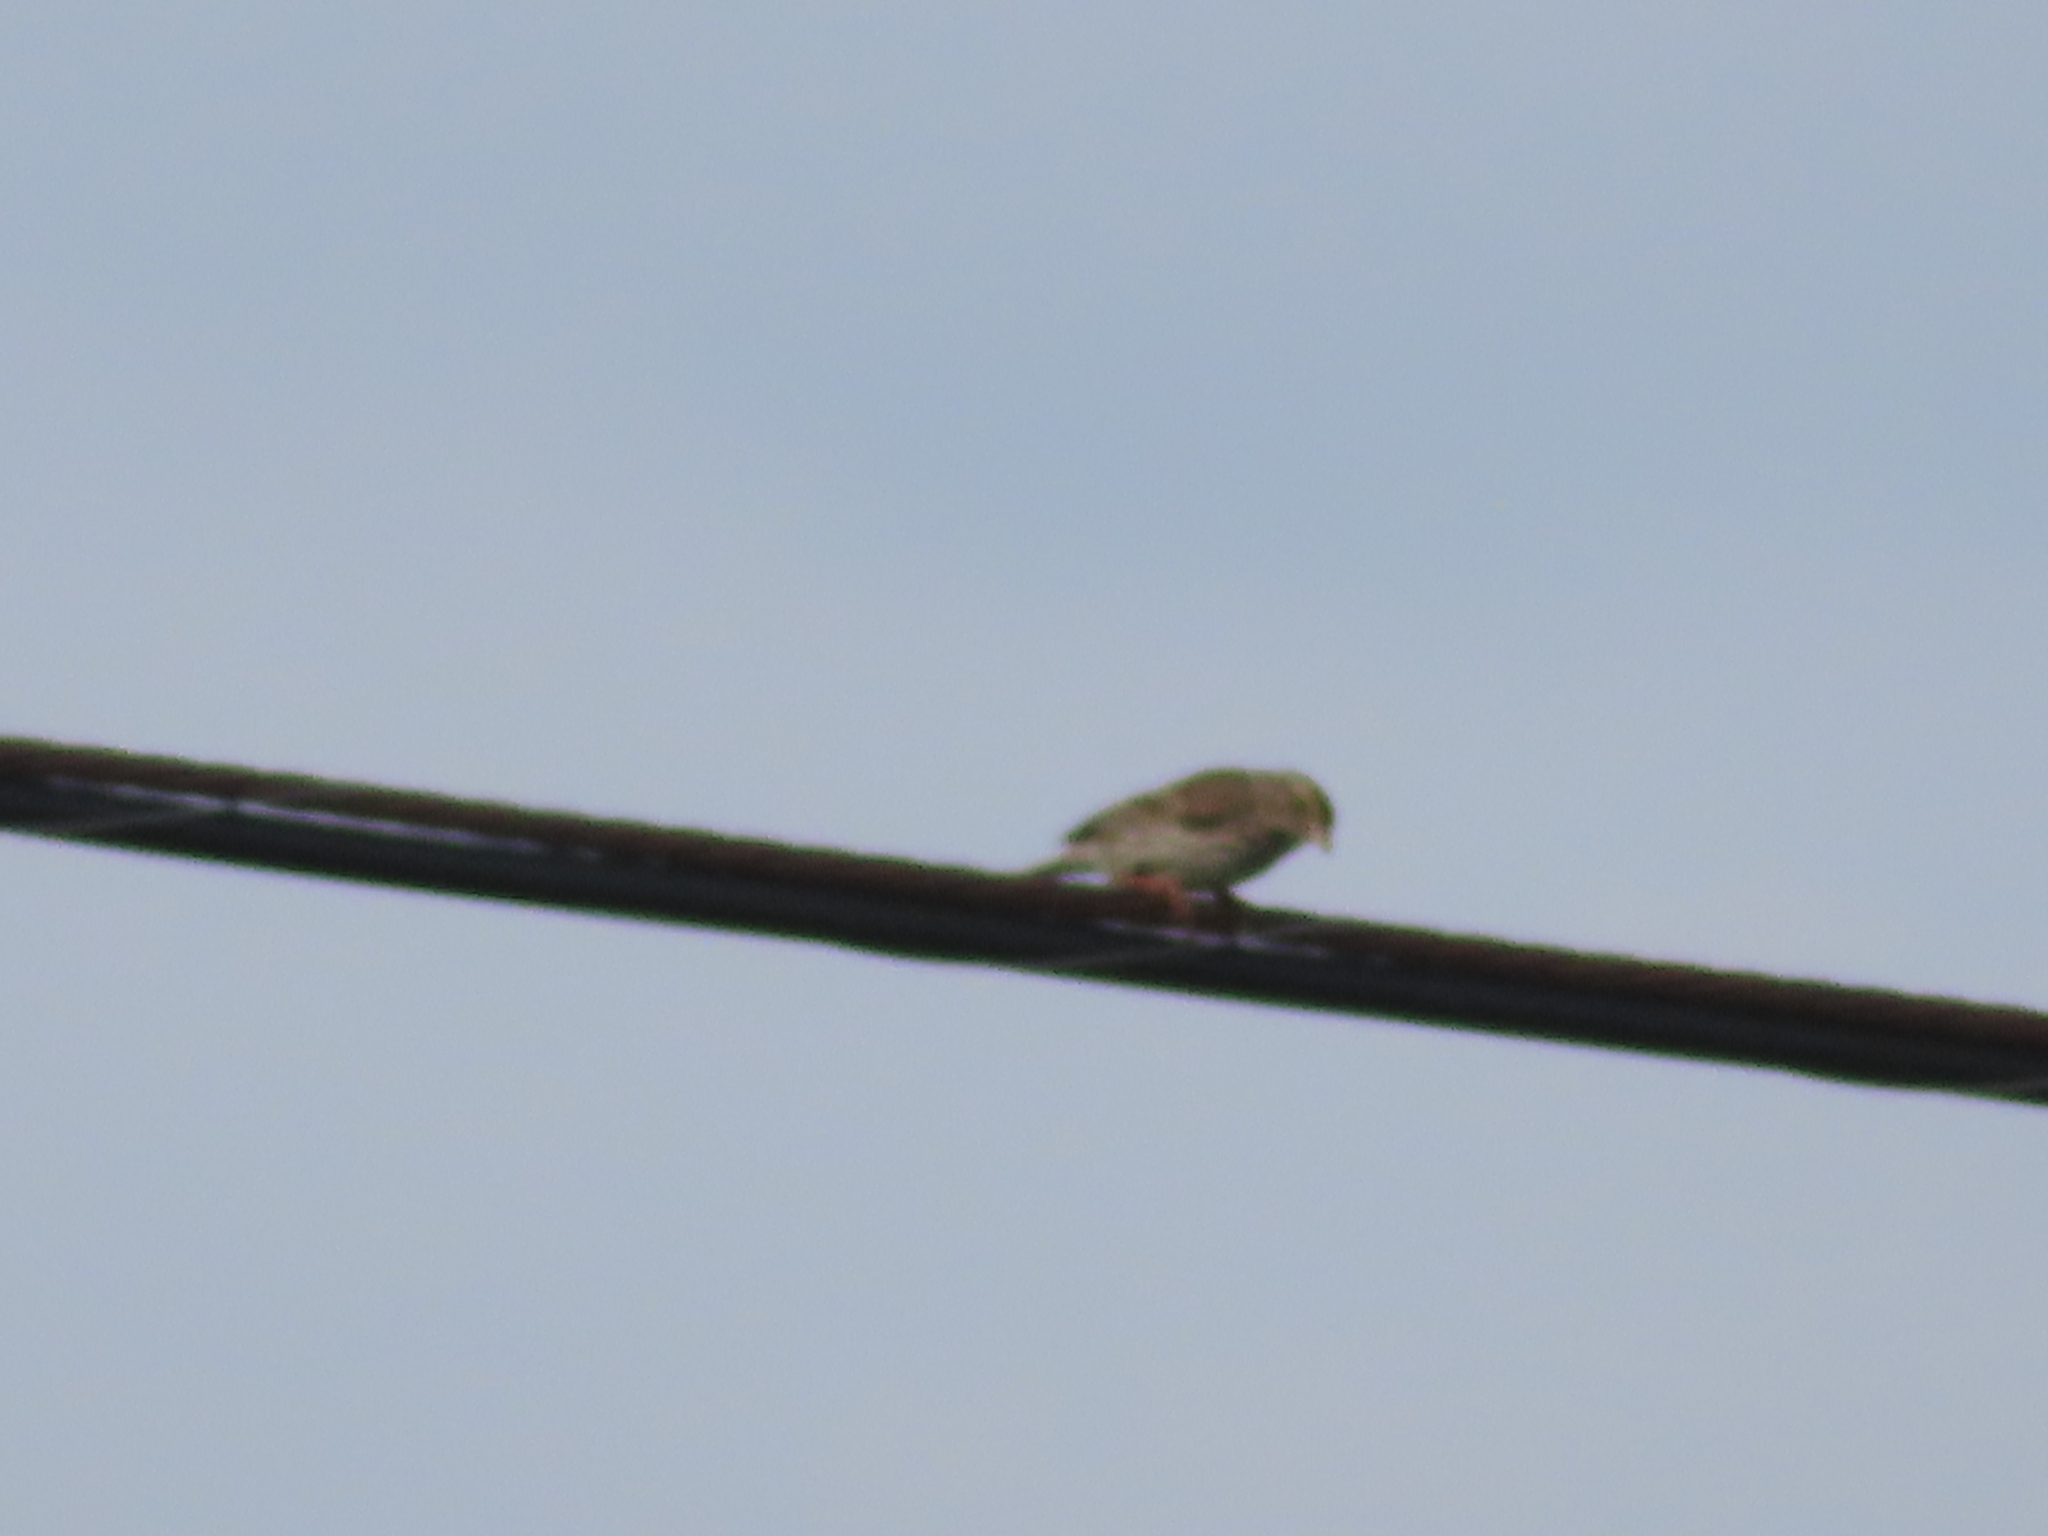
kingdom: Animalia
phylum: Chordata
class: Aves
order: Passeriformes
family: Passerellidae
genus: Passerculus
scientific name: Passerculus sandwichensis
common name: Savannah sparrow
